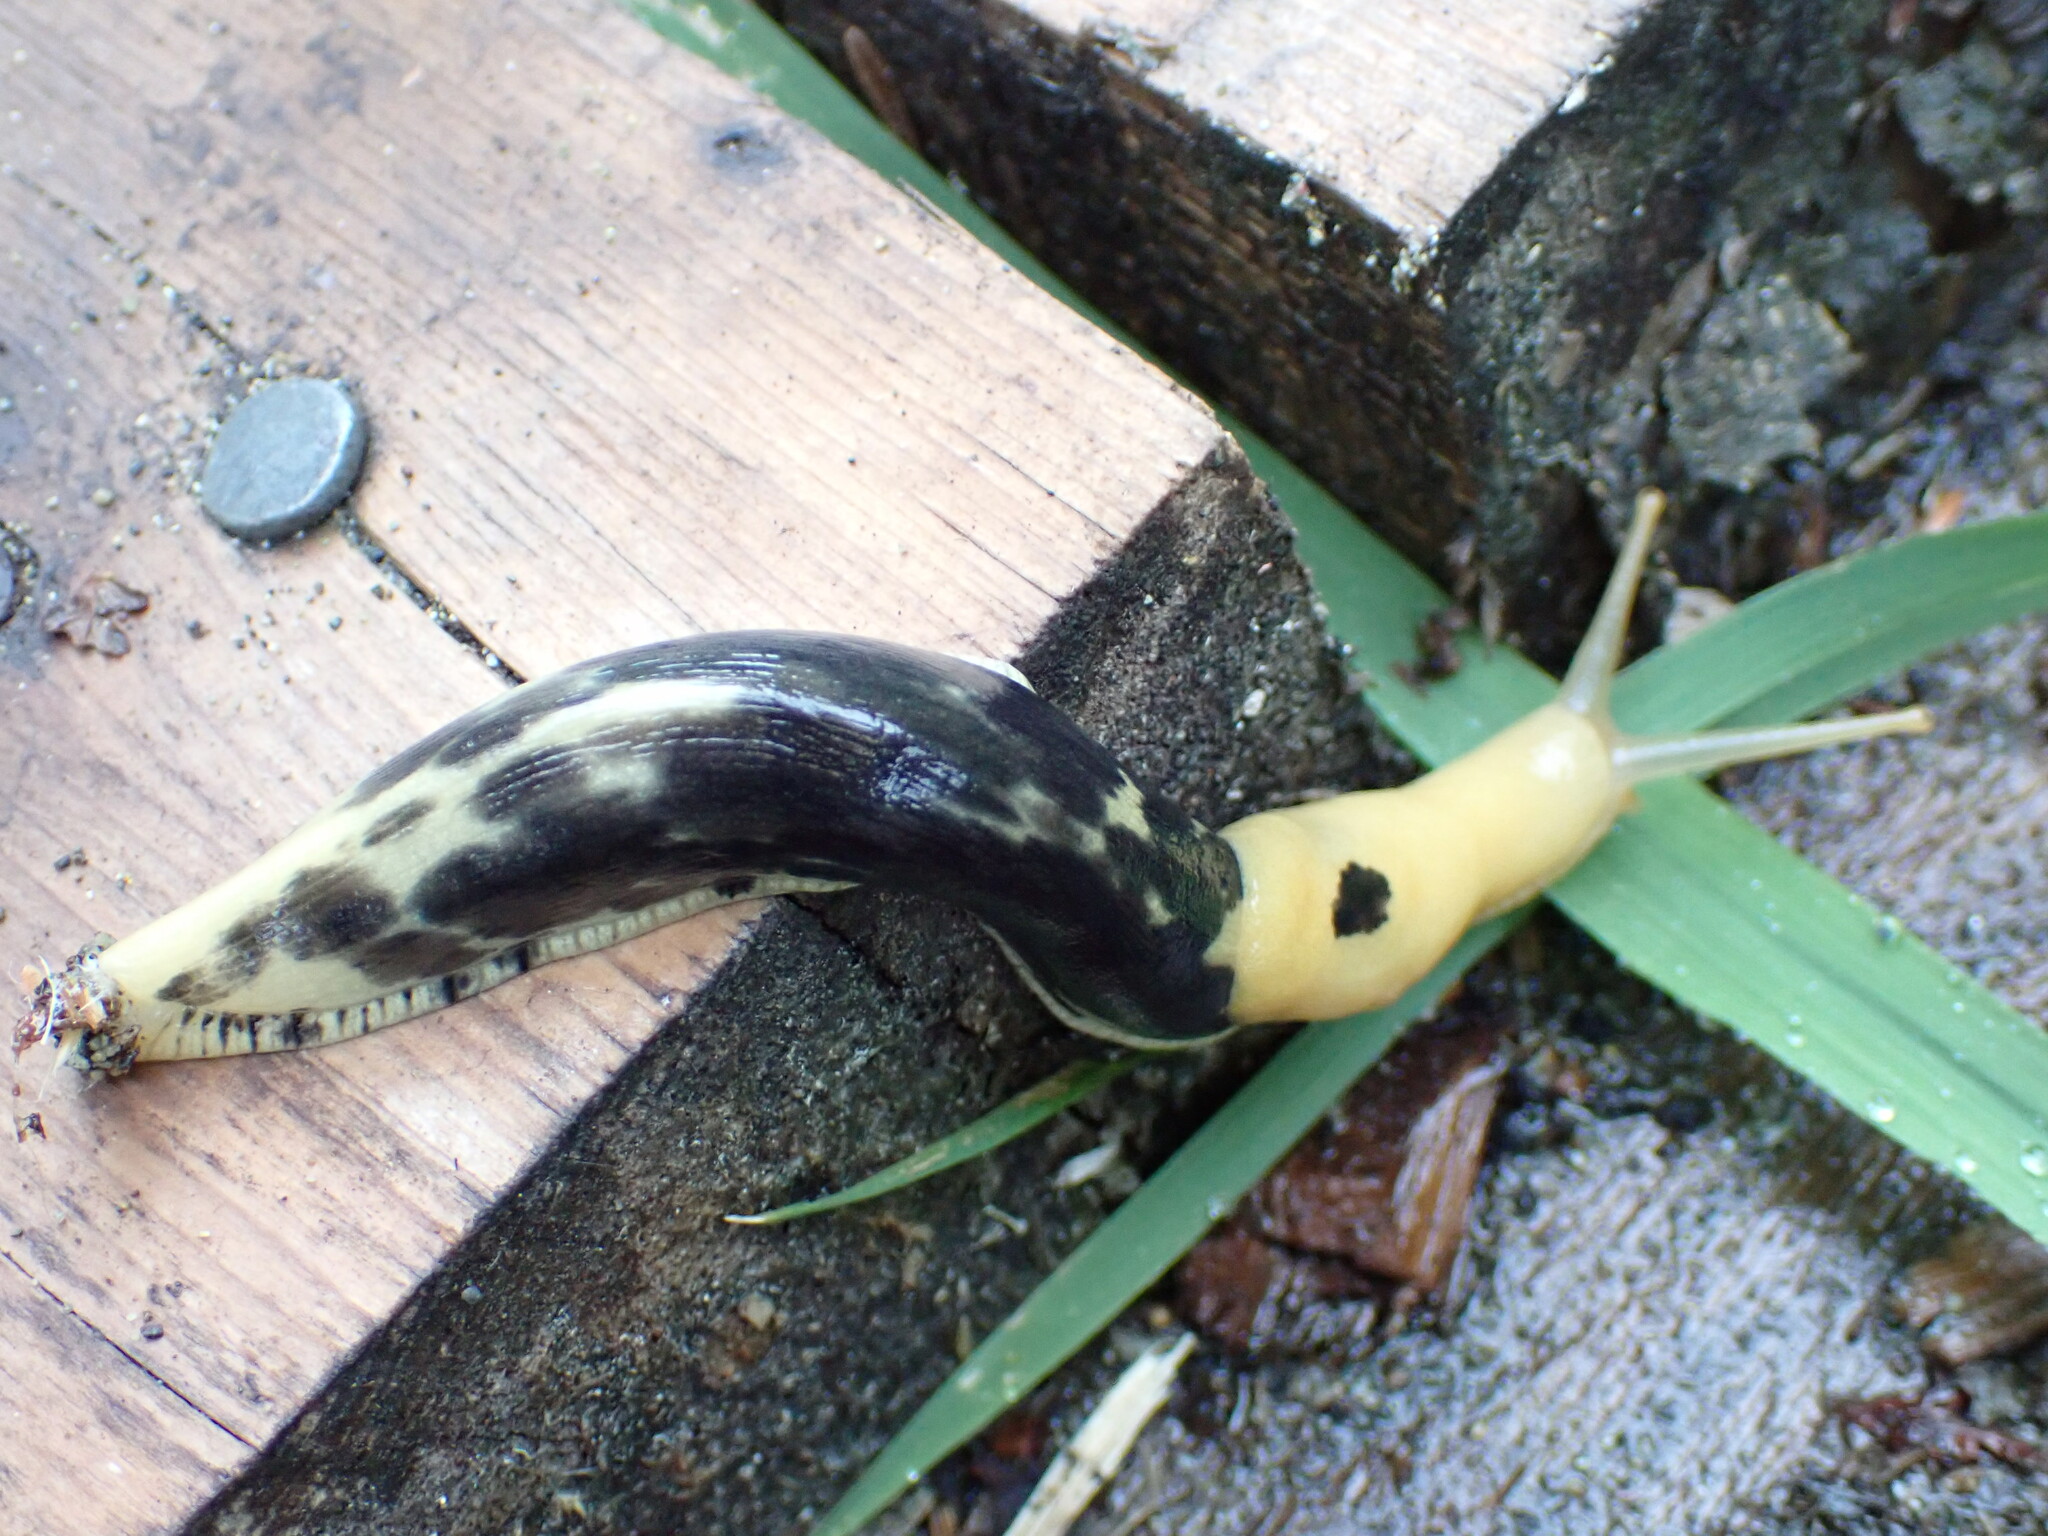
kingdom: Animalia
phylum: Mollusca
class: Gastropoda
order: Stylommatophora
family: Ariolimacidae
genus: Ariolimax
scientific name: Ariolimax columbianus
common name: Pacific banana slug
